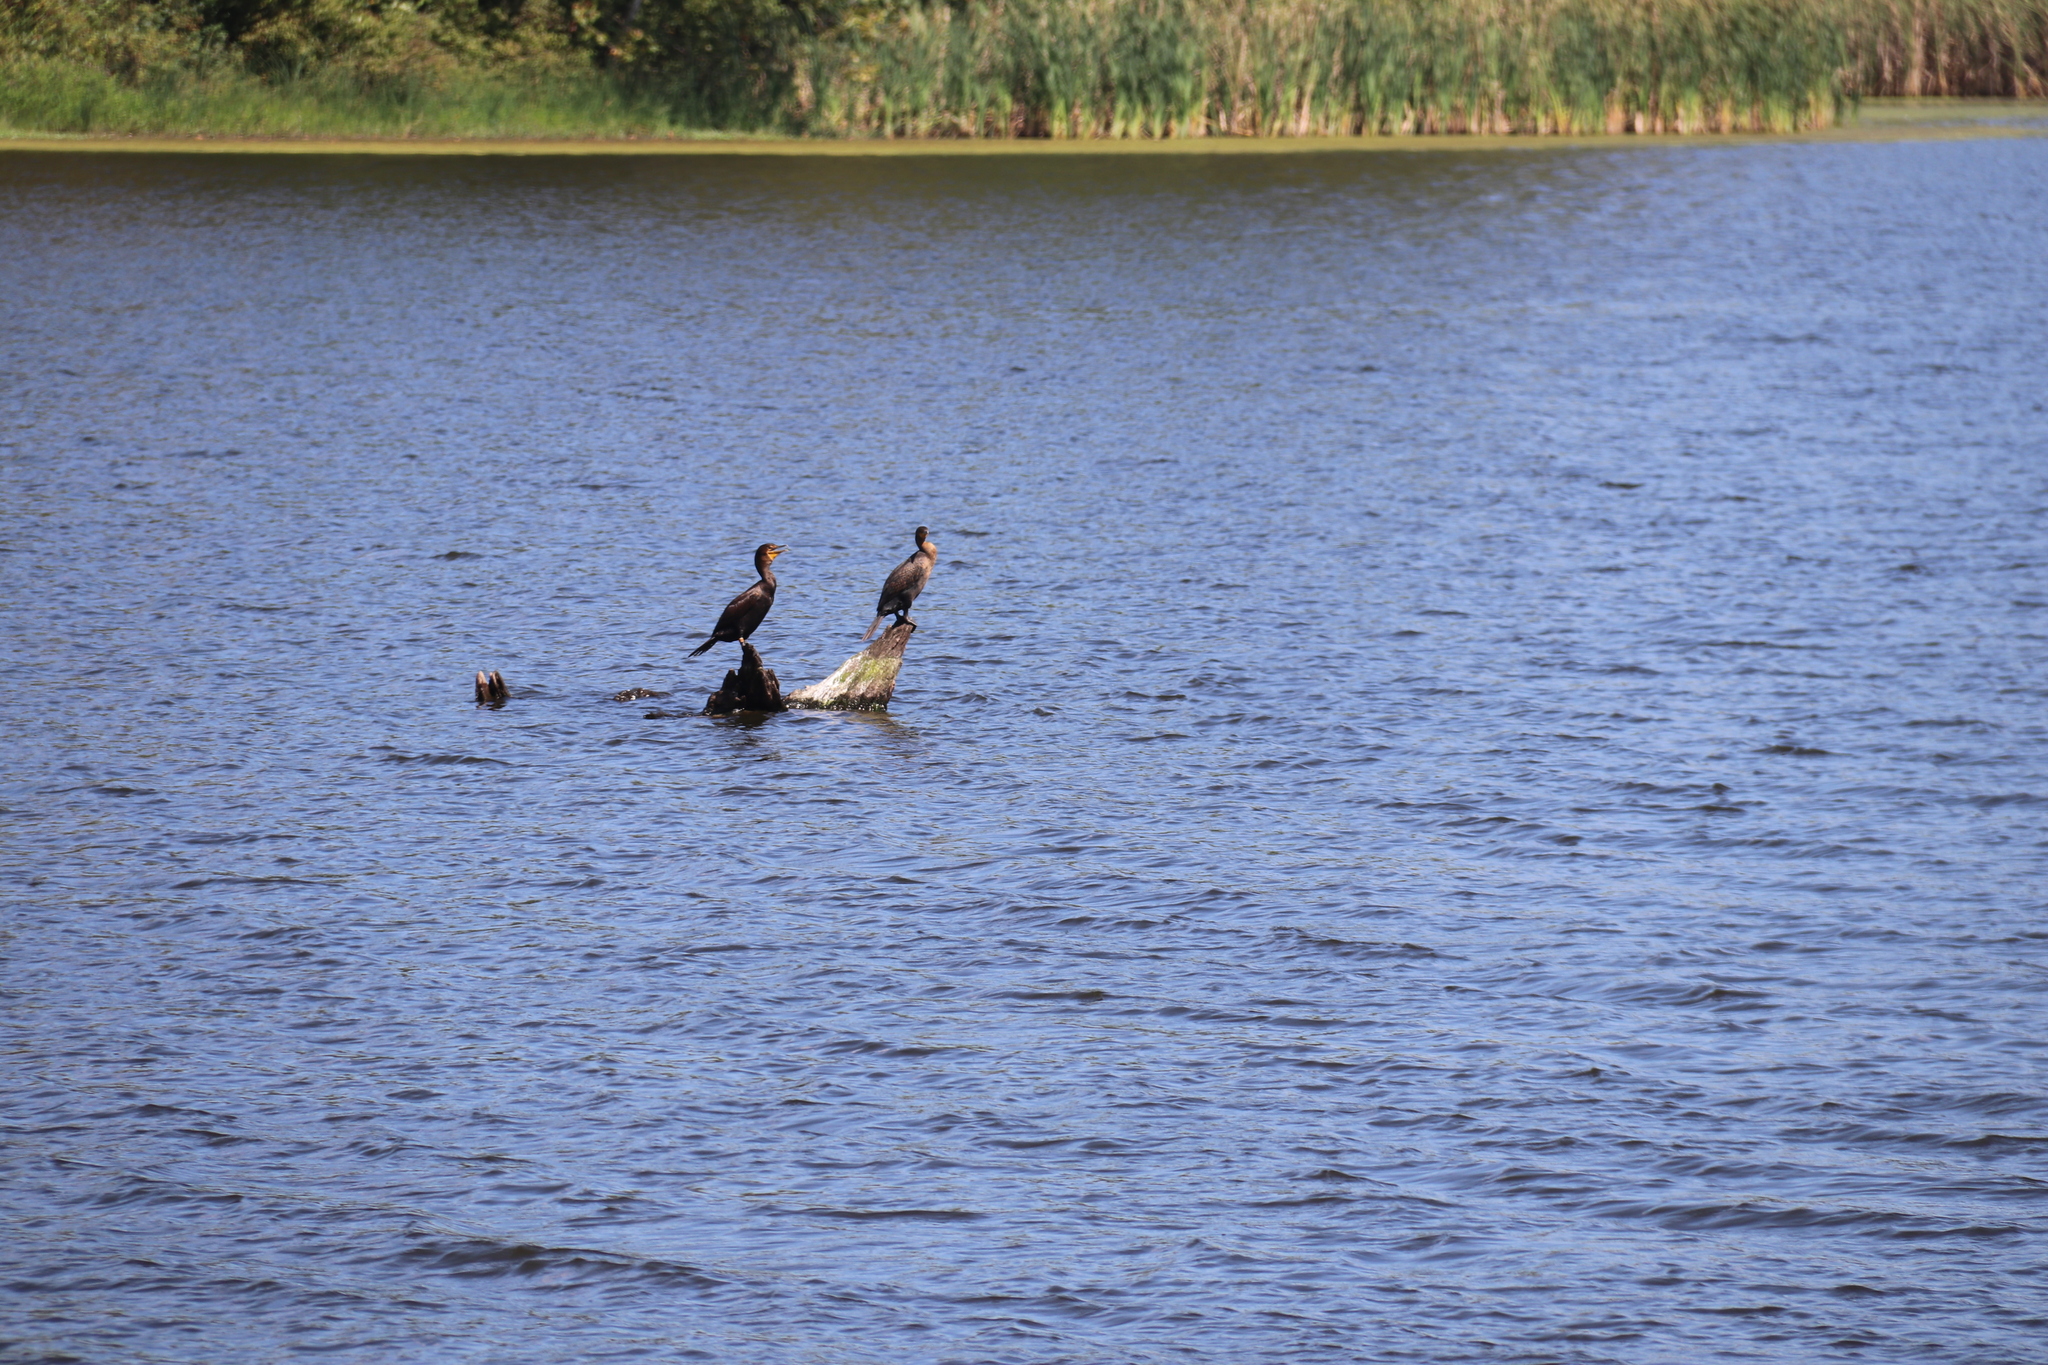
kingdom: Animalia
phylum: Chordata
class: Aves
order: Suliformes
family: Phalacrocoracidae
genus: Phalacrocorax
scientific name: Phalacrocorax auritus
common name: Double-crested cormorant
